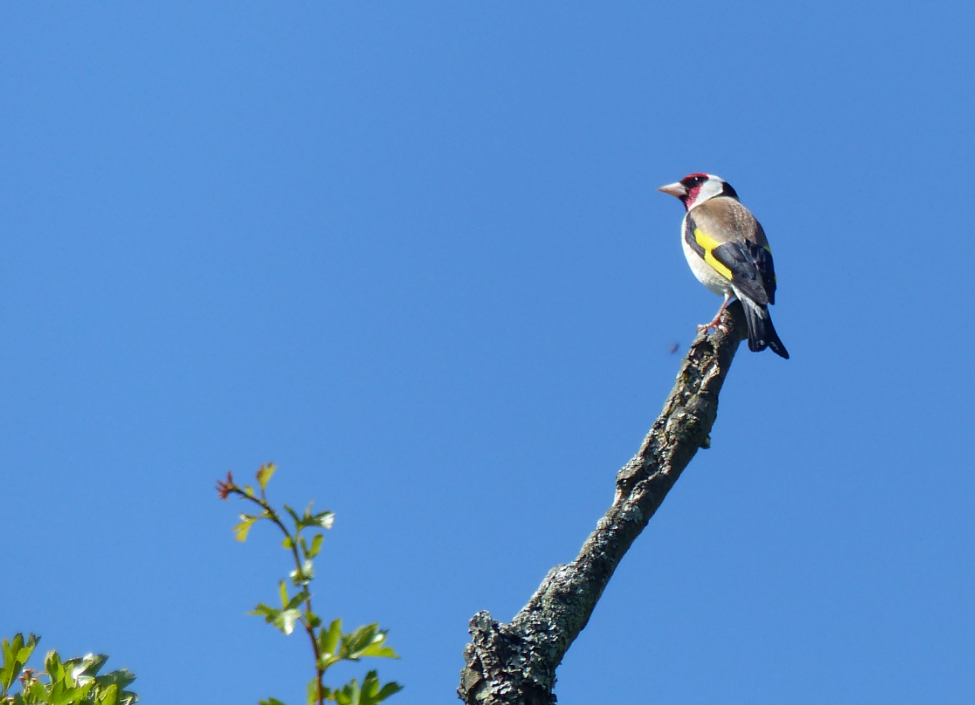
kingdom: Animalia
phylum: Chordata
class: Aves
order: Passeriformes
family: Fringillidae
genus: Carduelis
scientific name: Carduelis carduelis
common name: European goldfinch
